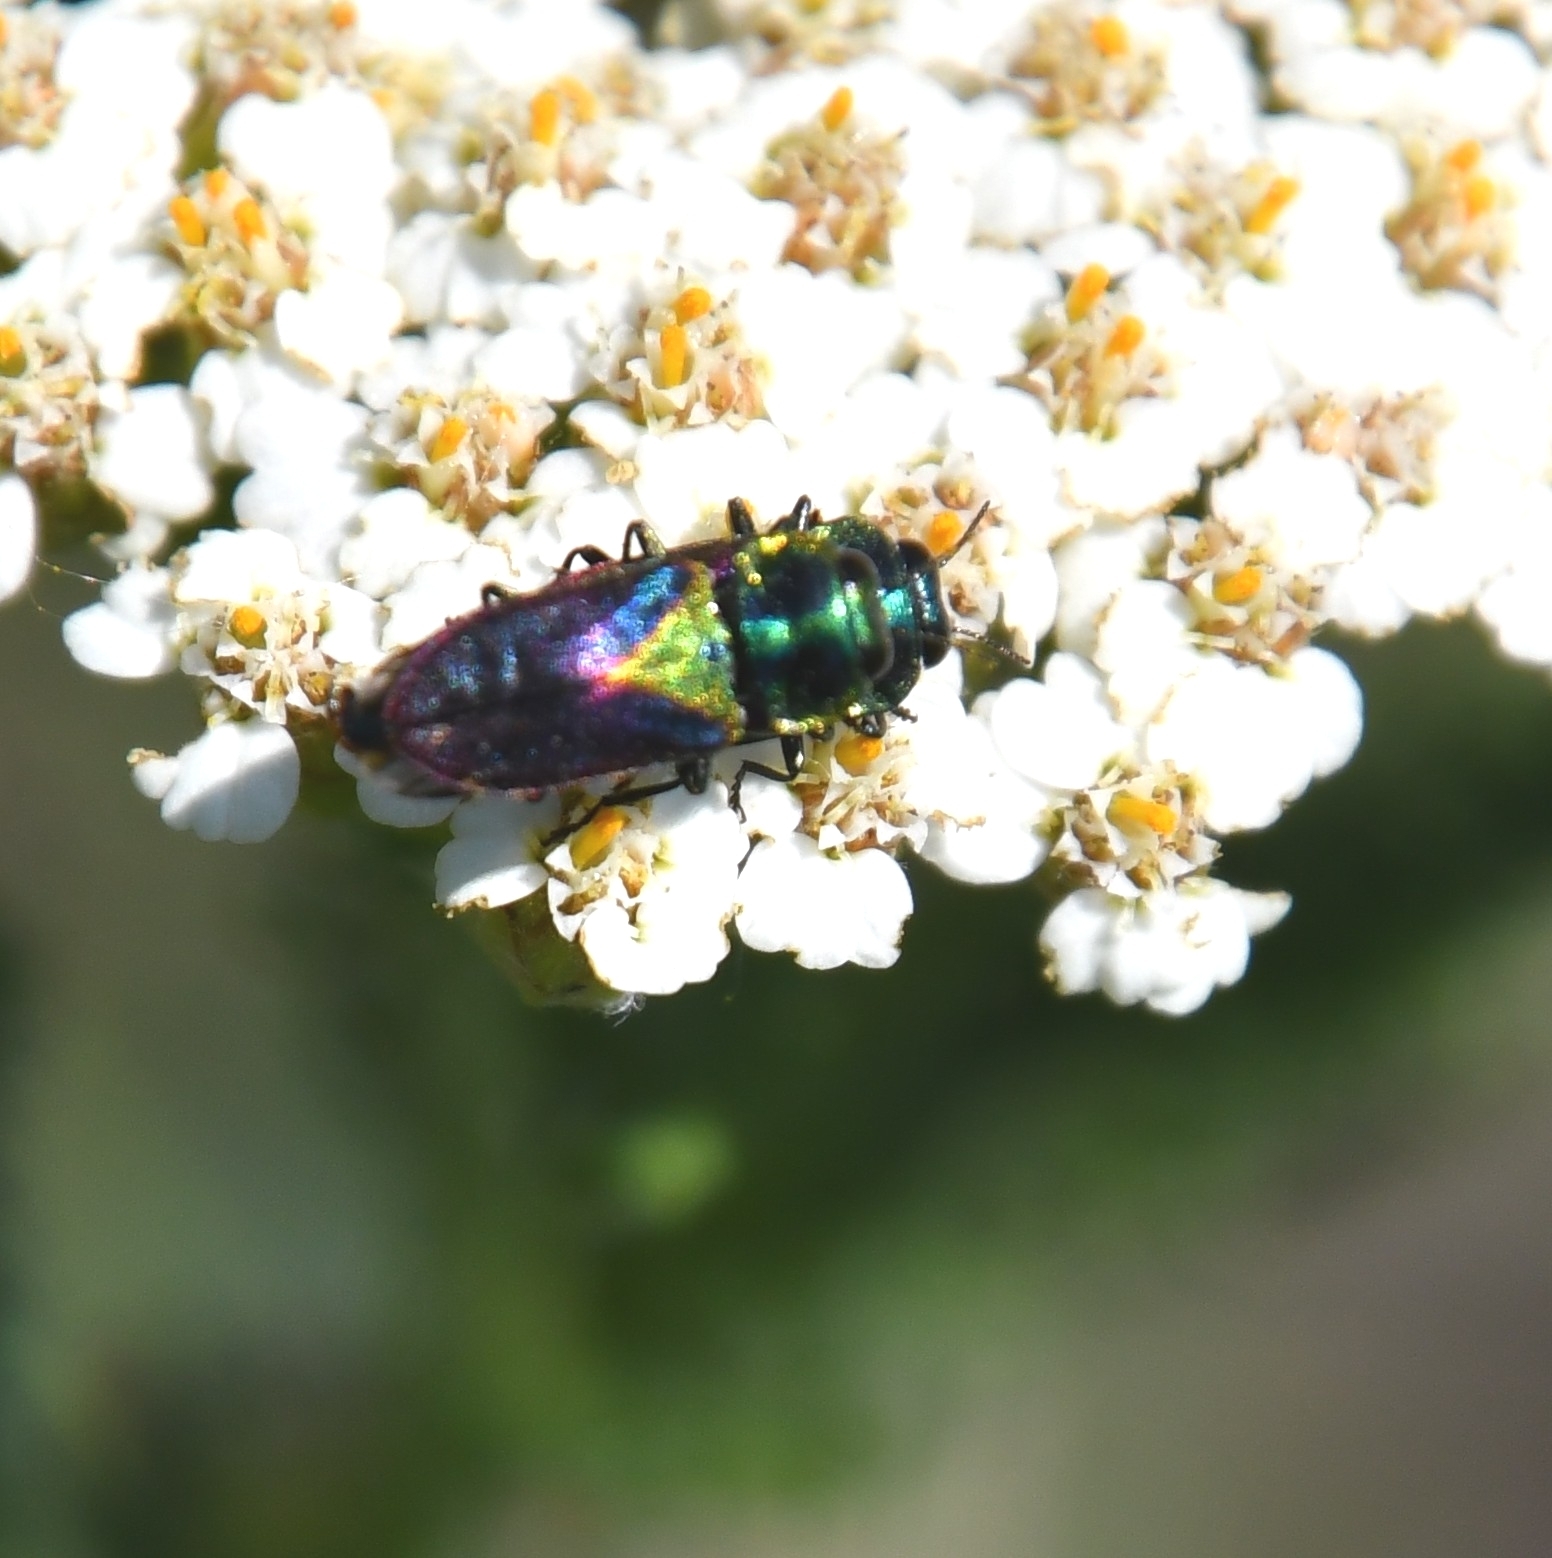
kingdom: Animalia
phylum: Arthropoda
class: Insecta
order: Coleoptera
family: Buprestidae
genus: Anthaxia
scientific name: Anthaxia bicolor
